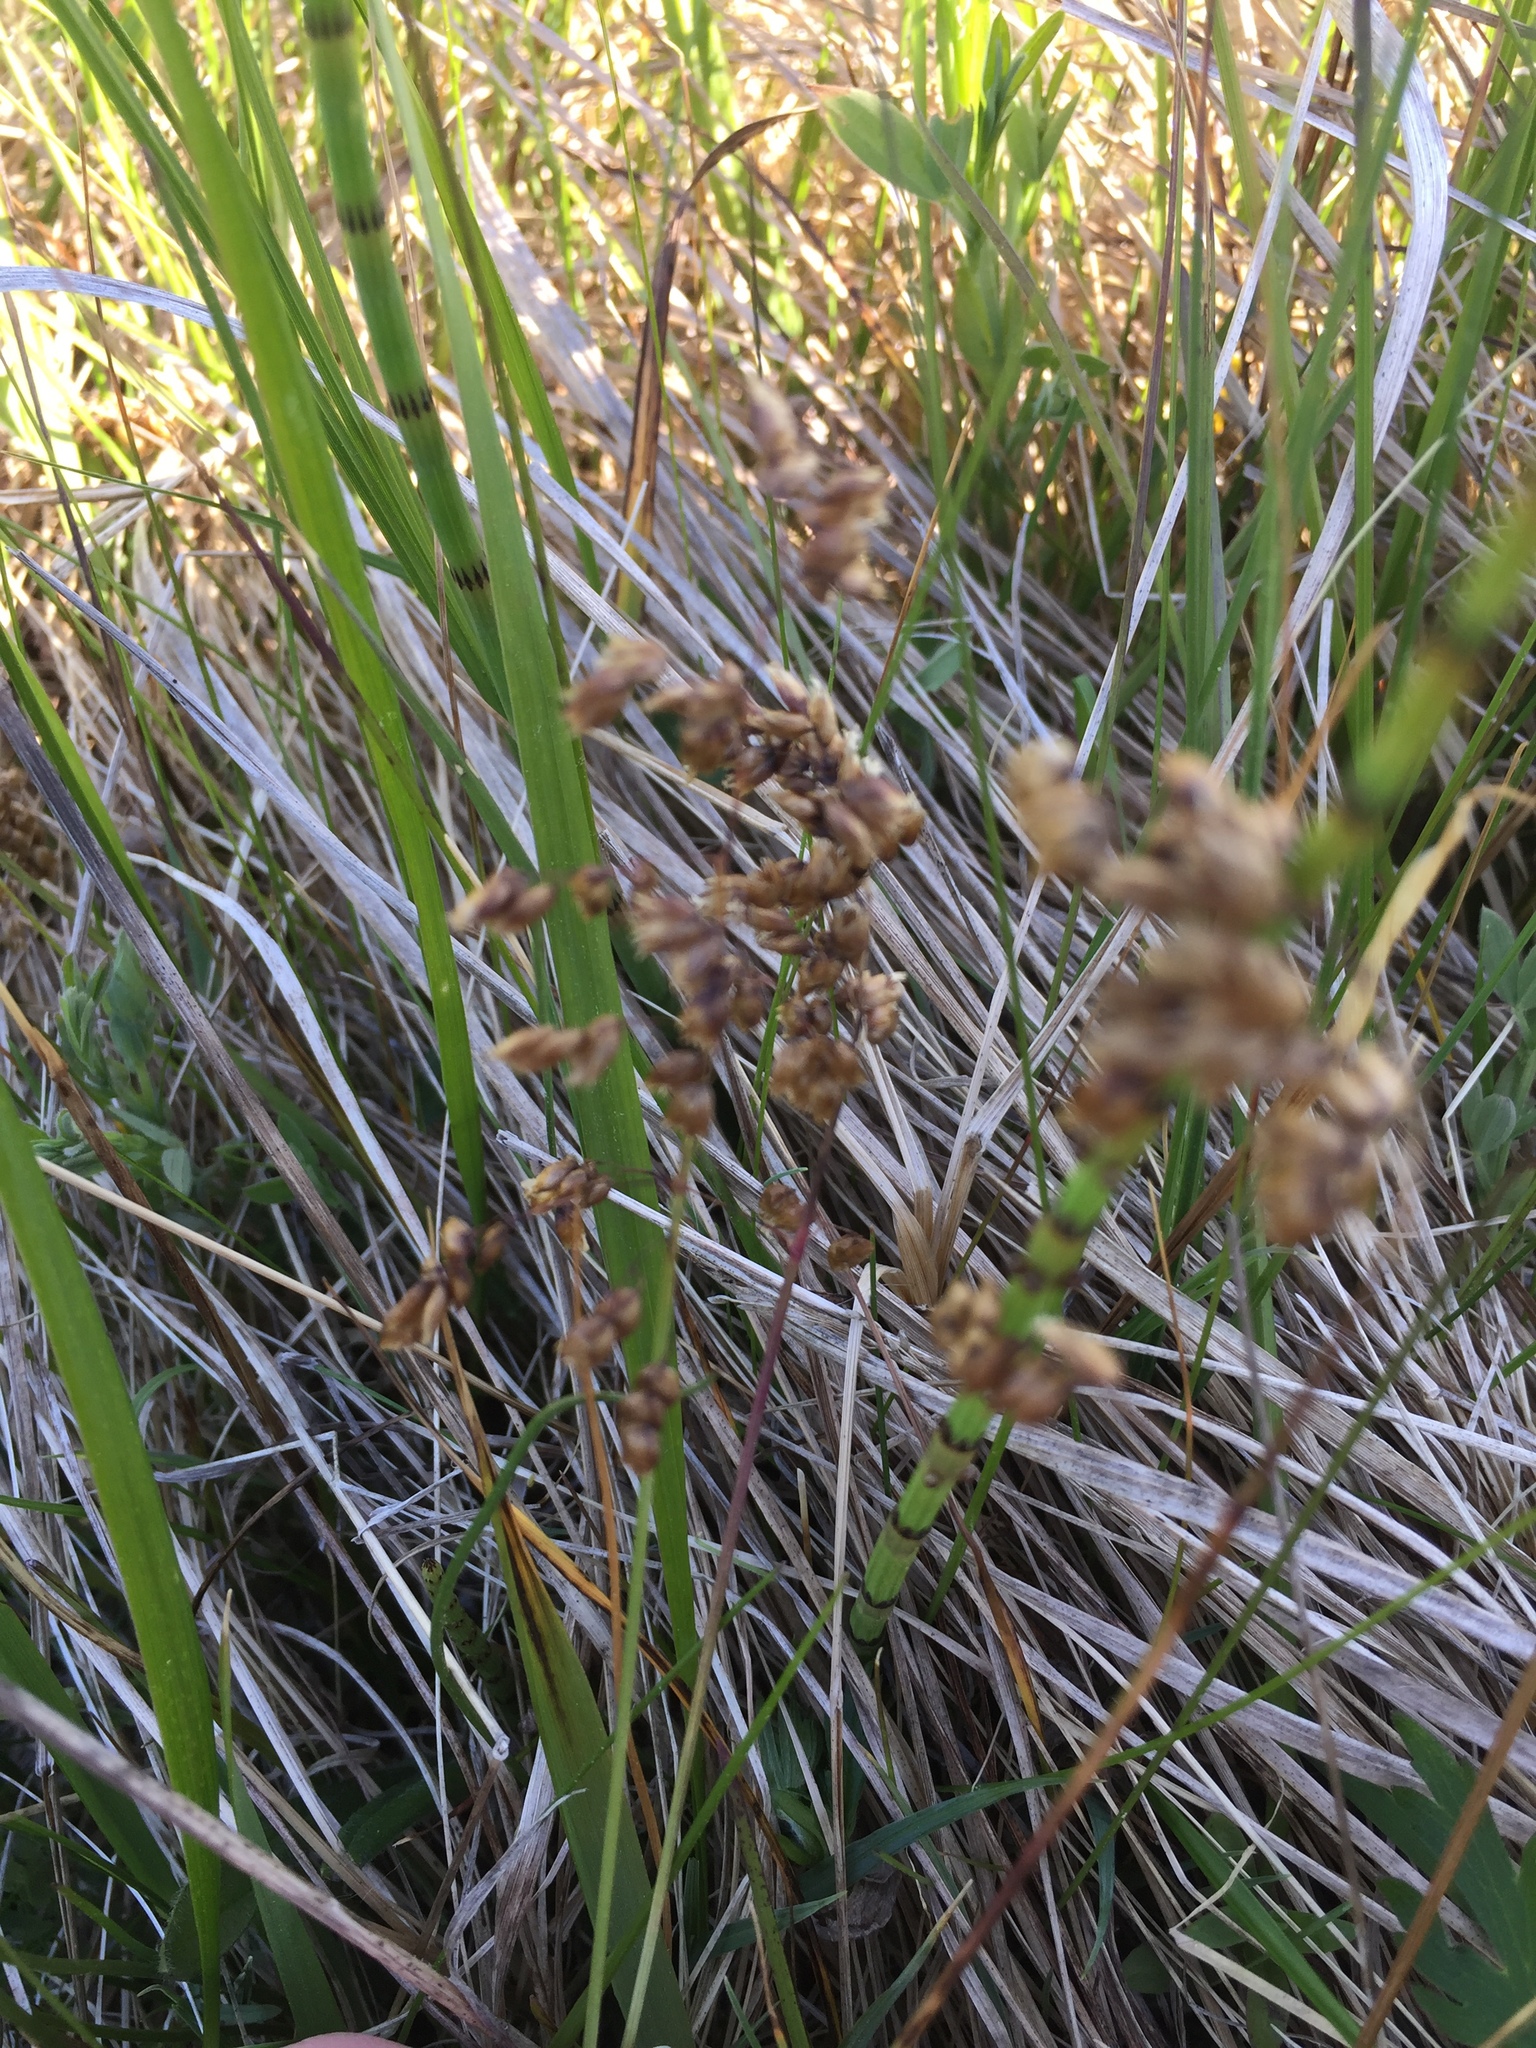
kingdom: Plantae
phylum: Tracheophyta
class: Liliopsida
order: Poales
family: Poaceae
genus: Anthoxanthum
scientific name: Anthoxanthum nitens
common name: Holy grass
